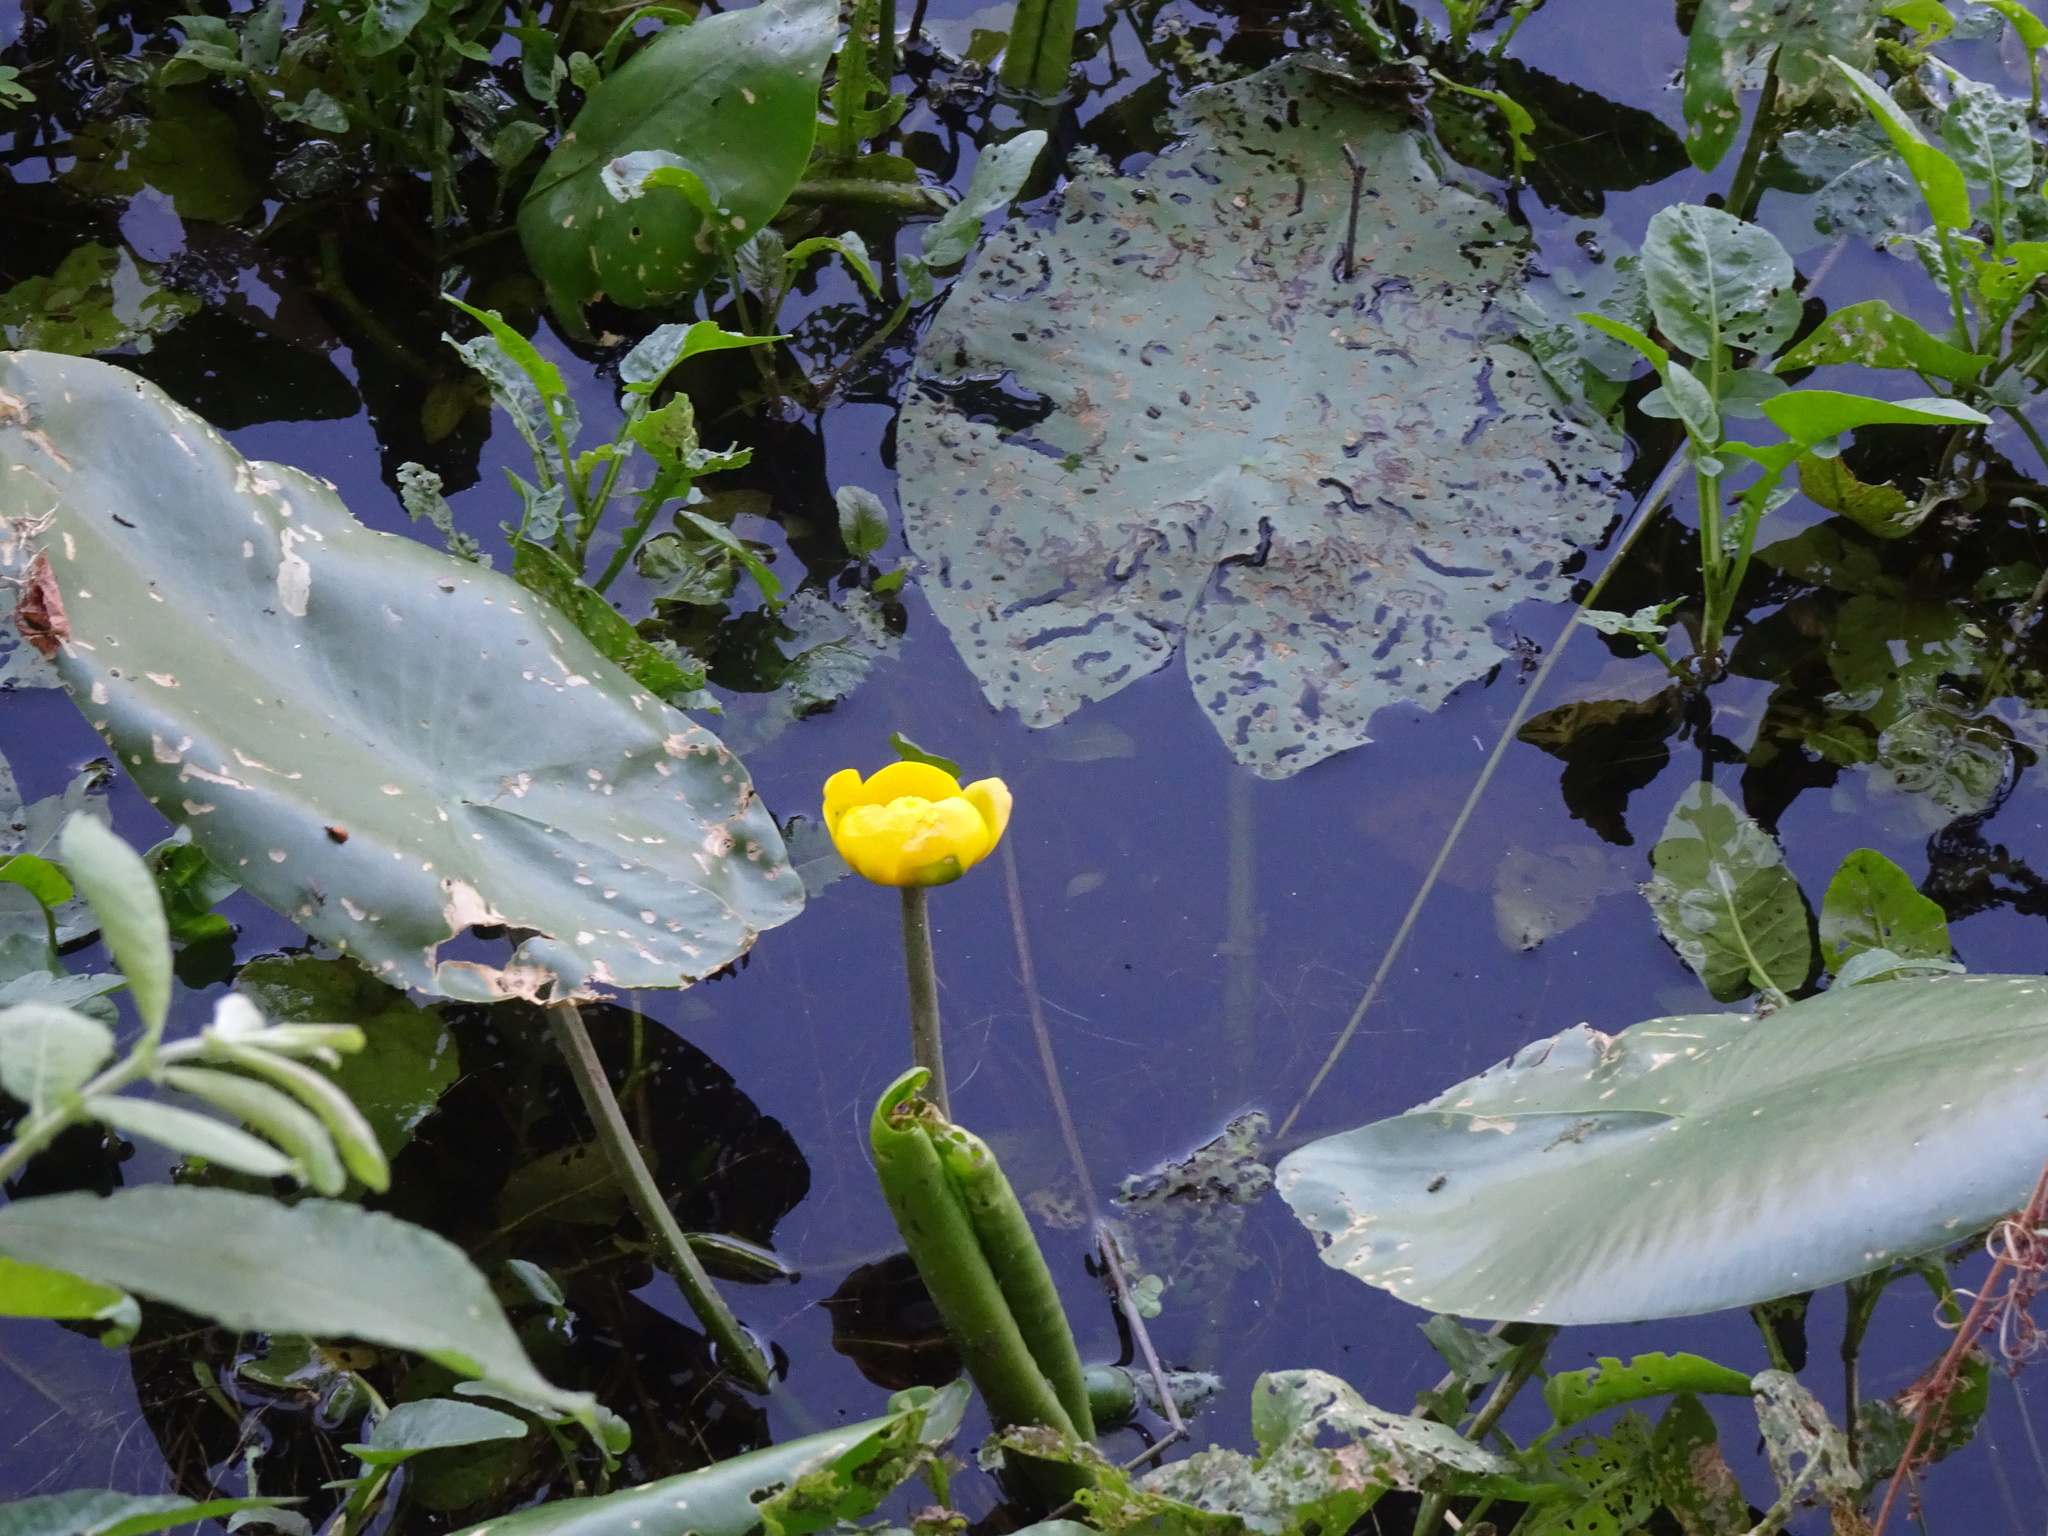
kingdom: Plantae
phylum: Tracheophyta
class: Magnoliopsida
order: Nymphaeales
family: Nymphaeaceae
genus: Nuphar
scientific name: Nuphar lutea
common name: Yellow water-lily
